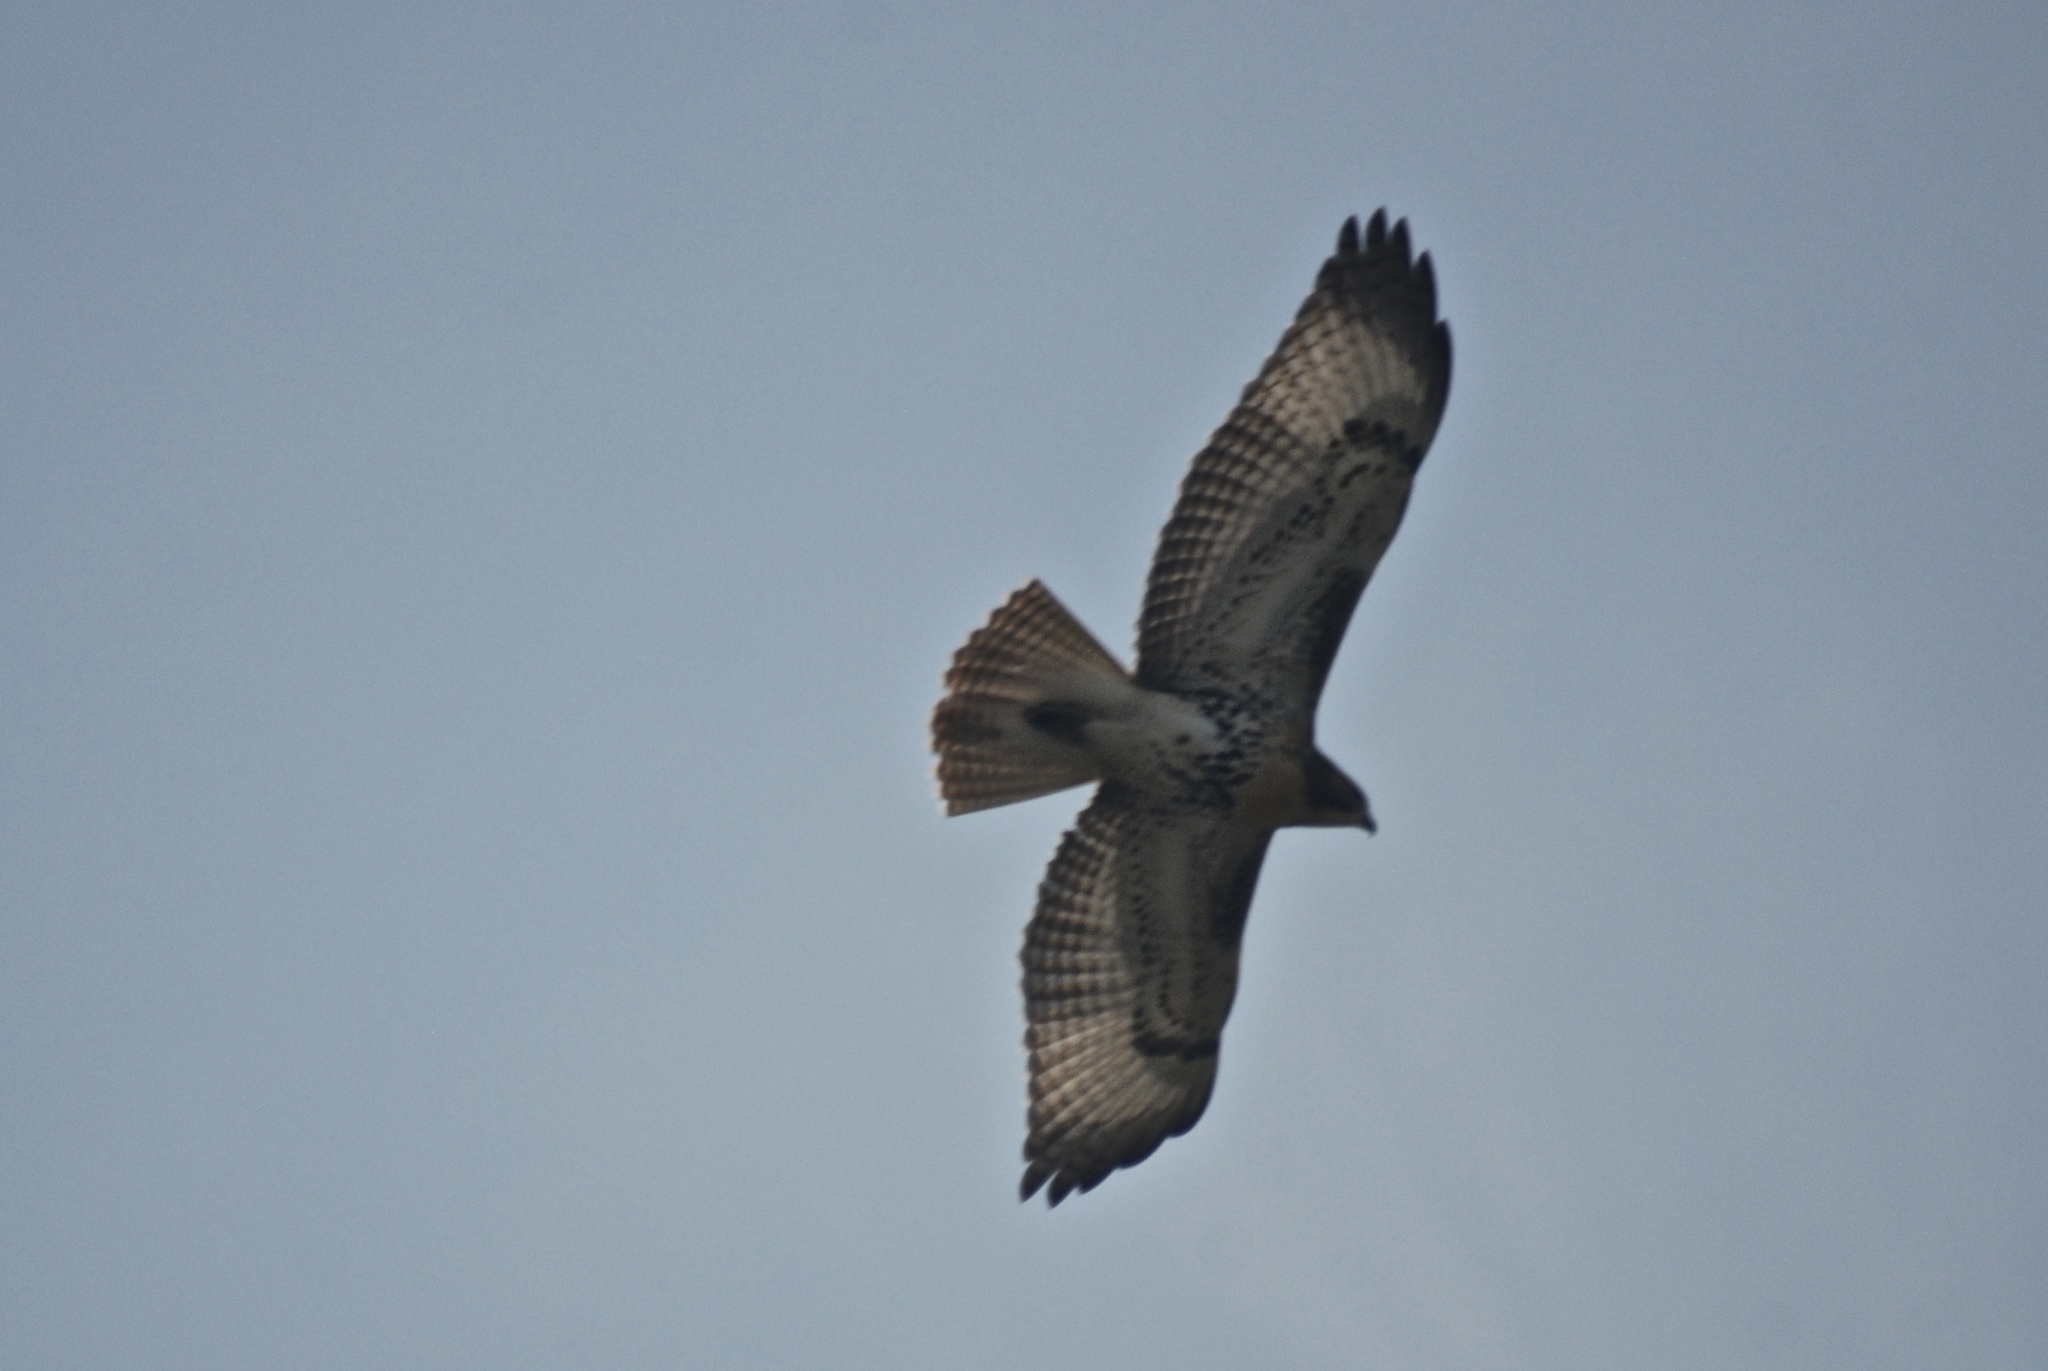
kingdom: Animalia
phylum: Chordata
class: Aves
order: Accipitriformes
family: Accipitridae
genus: Buteo
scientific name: Buteo jamaicensis
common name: Red-tailed hawk
